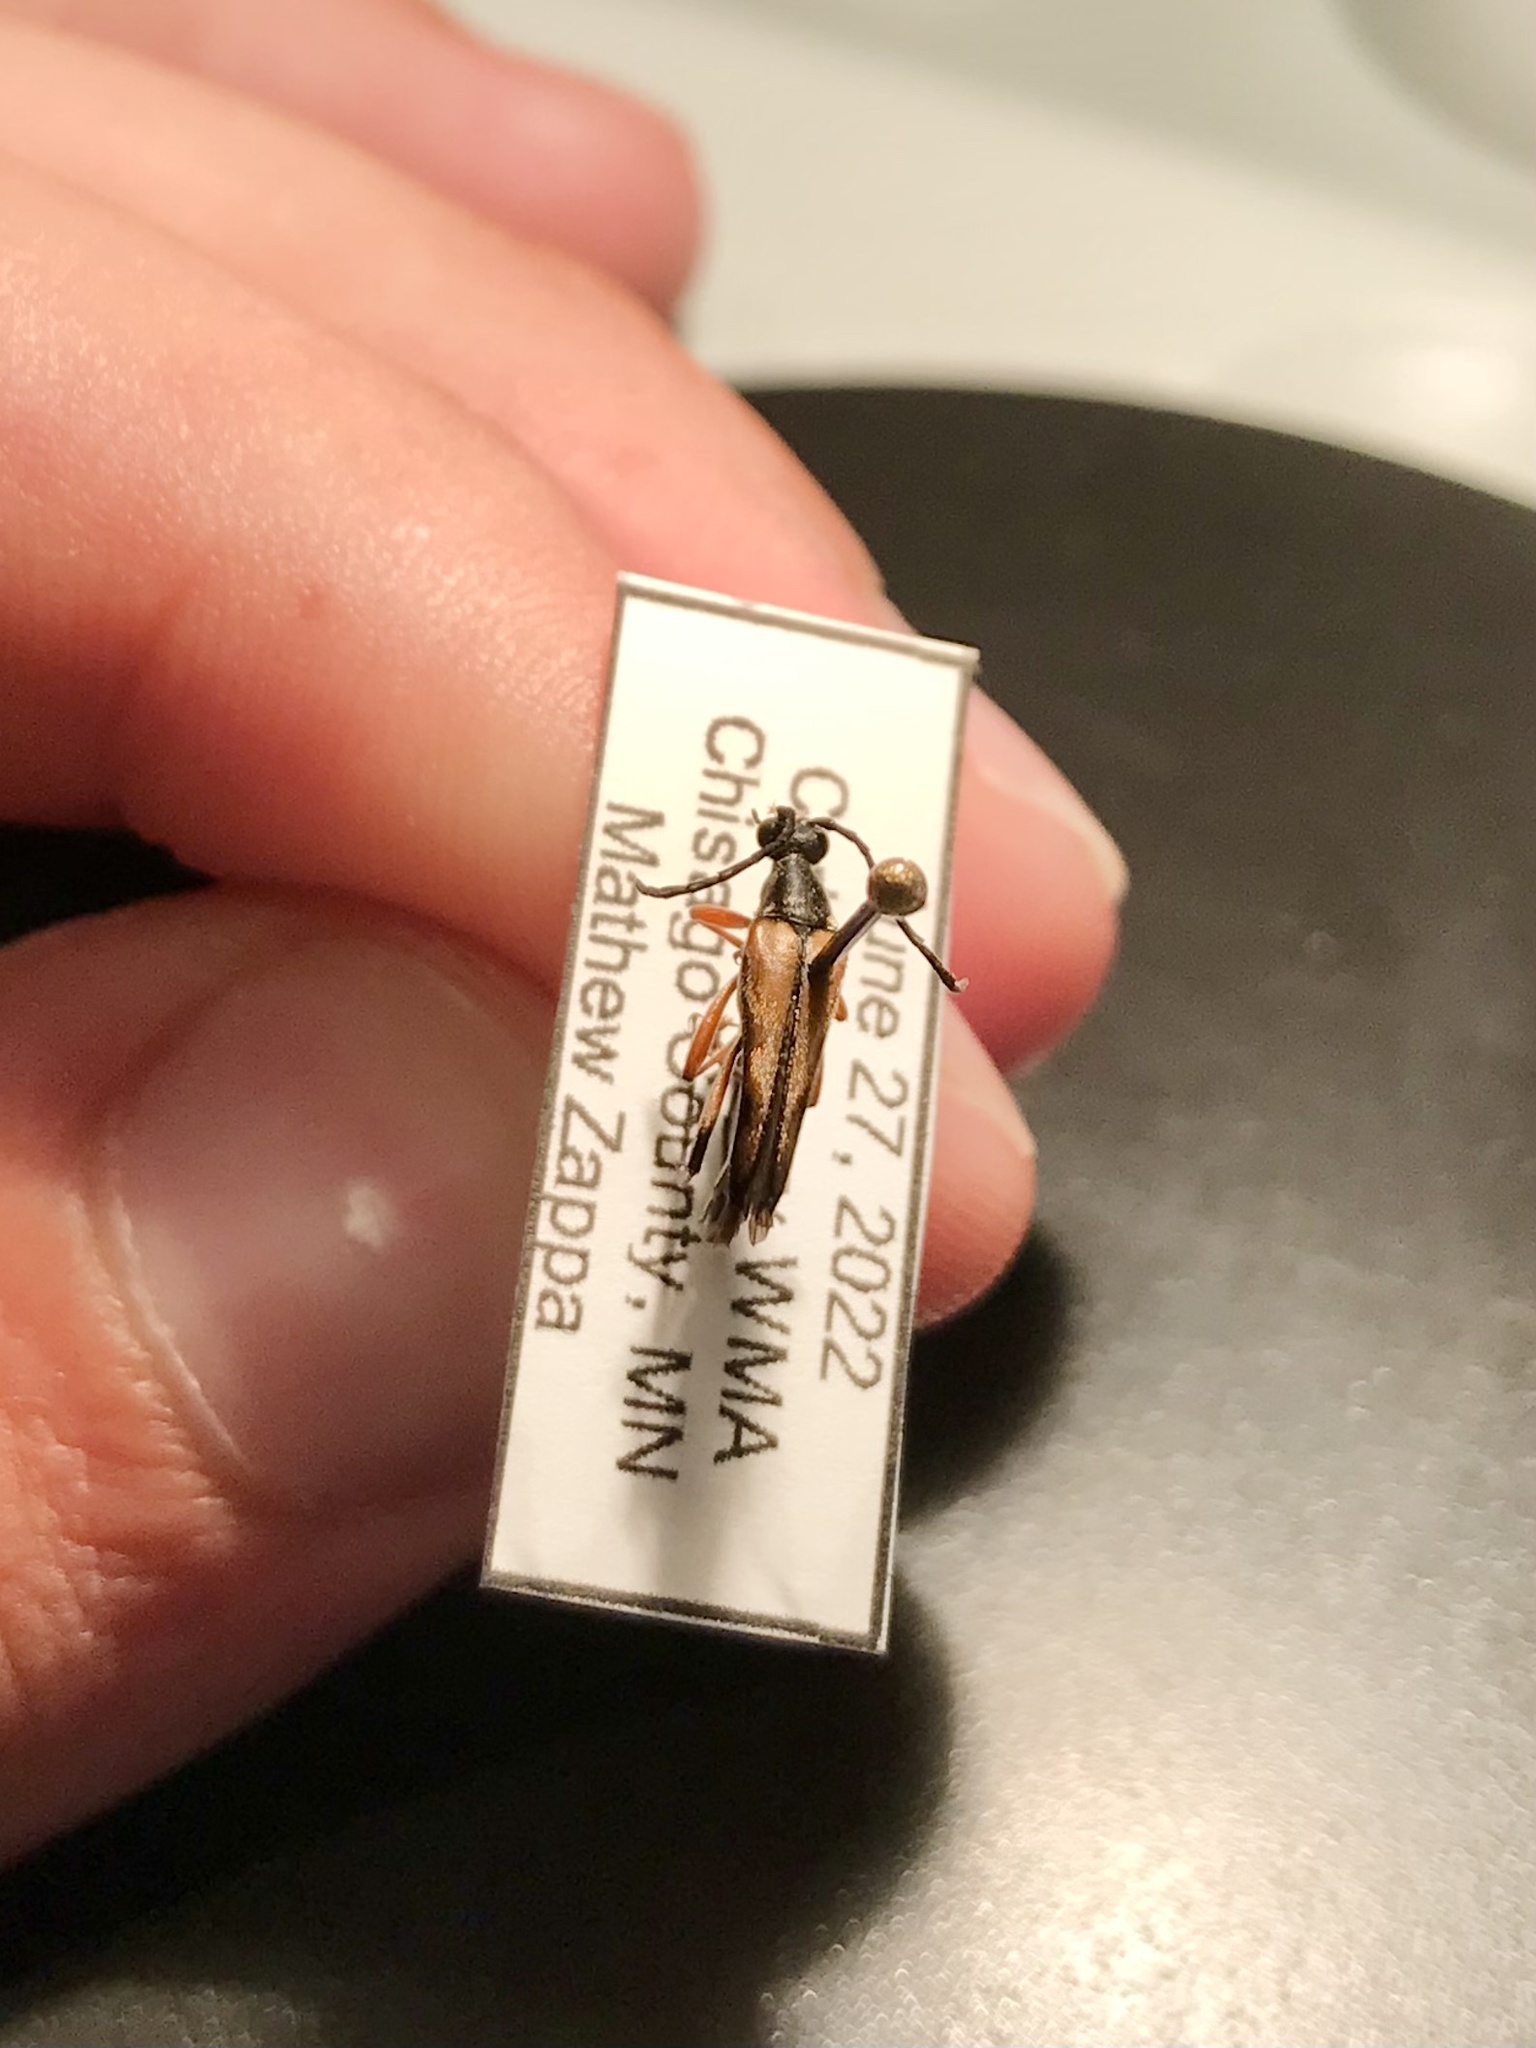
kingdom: Animalia
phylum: Arthropoda
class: Insecta
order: Coleoptera
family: Cerambycidae
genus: Strangalia
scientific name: Strangalia famelica
